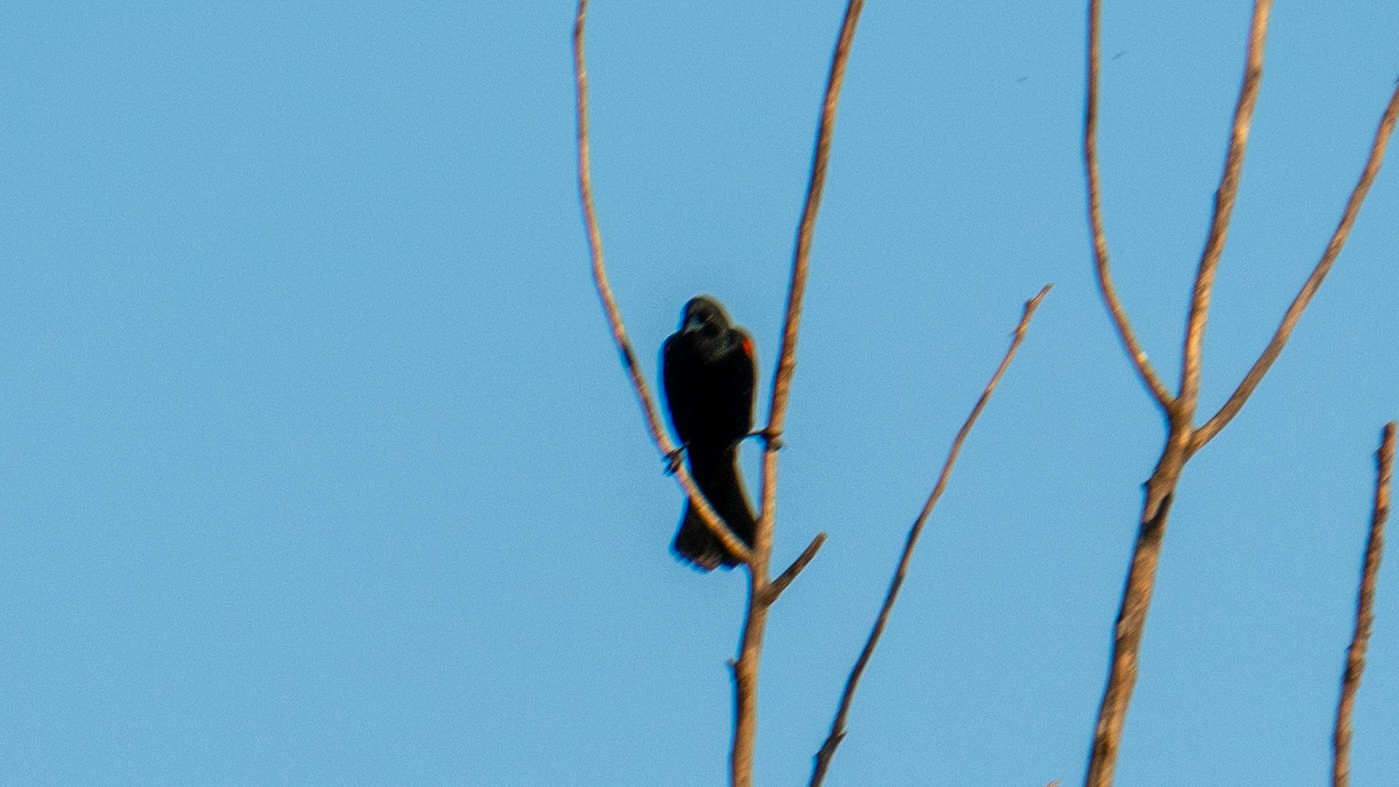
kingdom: Animalia
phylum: Chordata
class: Aves
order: Passeriformes
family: Icteridae
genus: Agelaius
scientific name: Agelaius phoeniceus
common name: Red-winged blackbird
